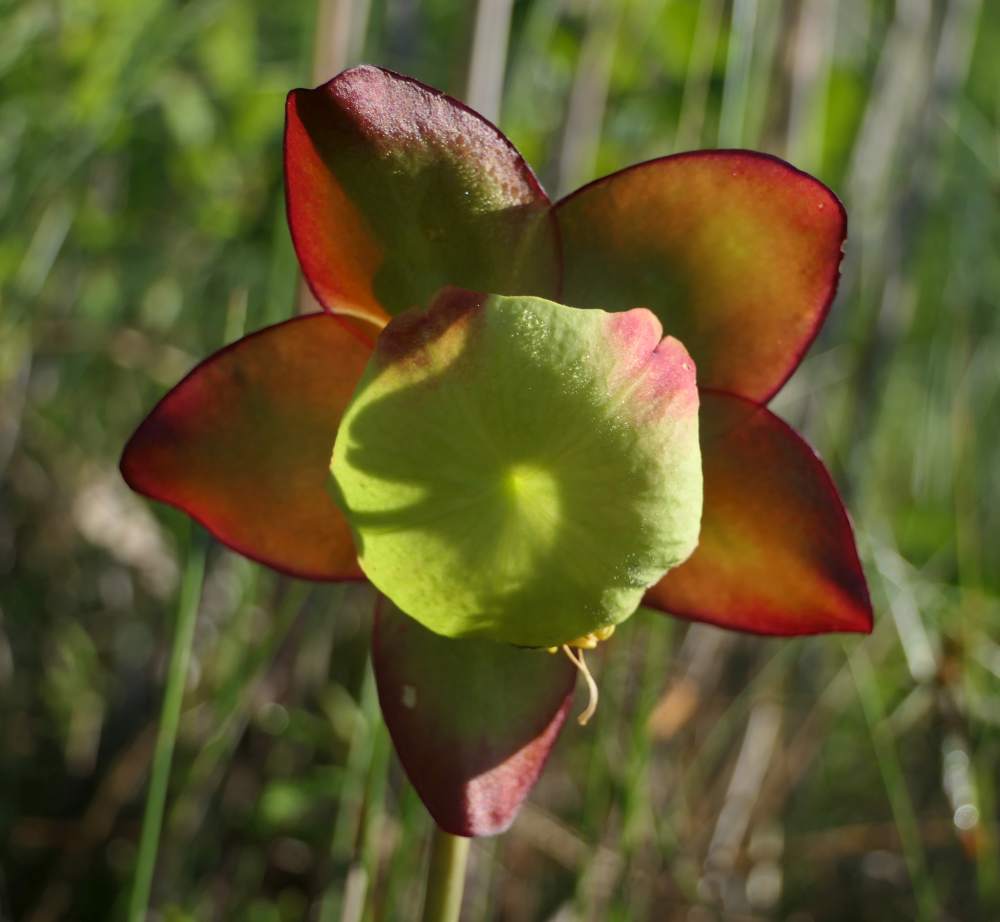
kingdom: Plantae
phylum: Tracheophyta
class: Magnoliopsida
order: Ericales
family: Sarraceniaceae
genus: Sarracenia
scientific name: Sarracenia purpurea
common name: Pitcherplant
